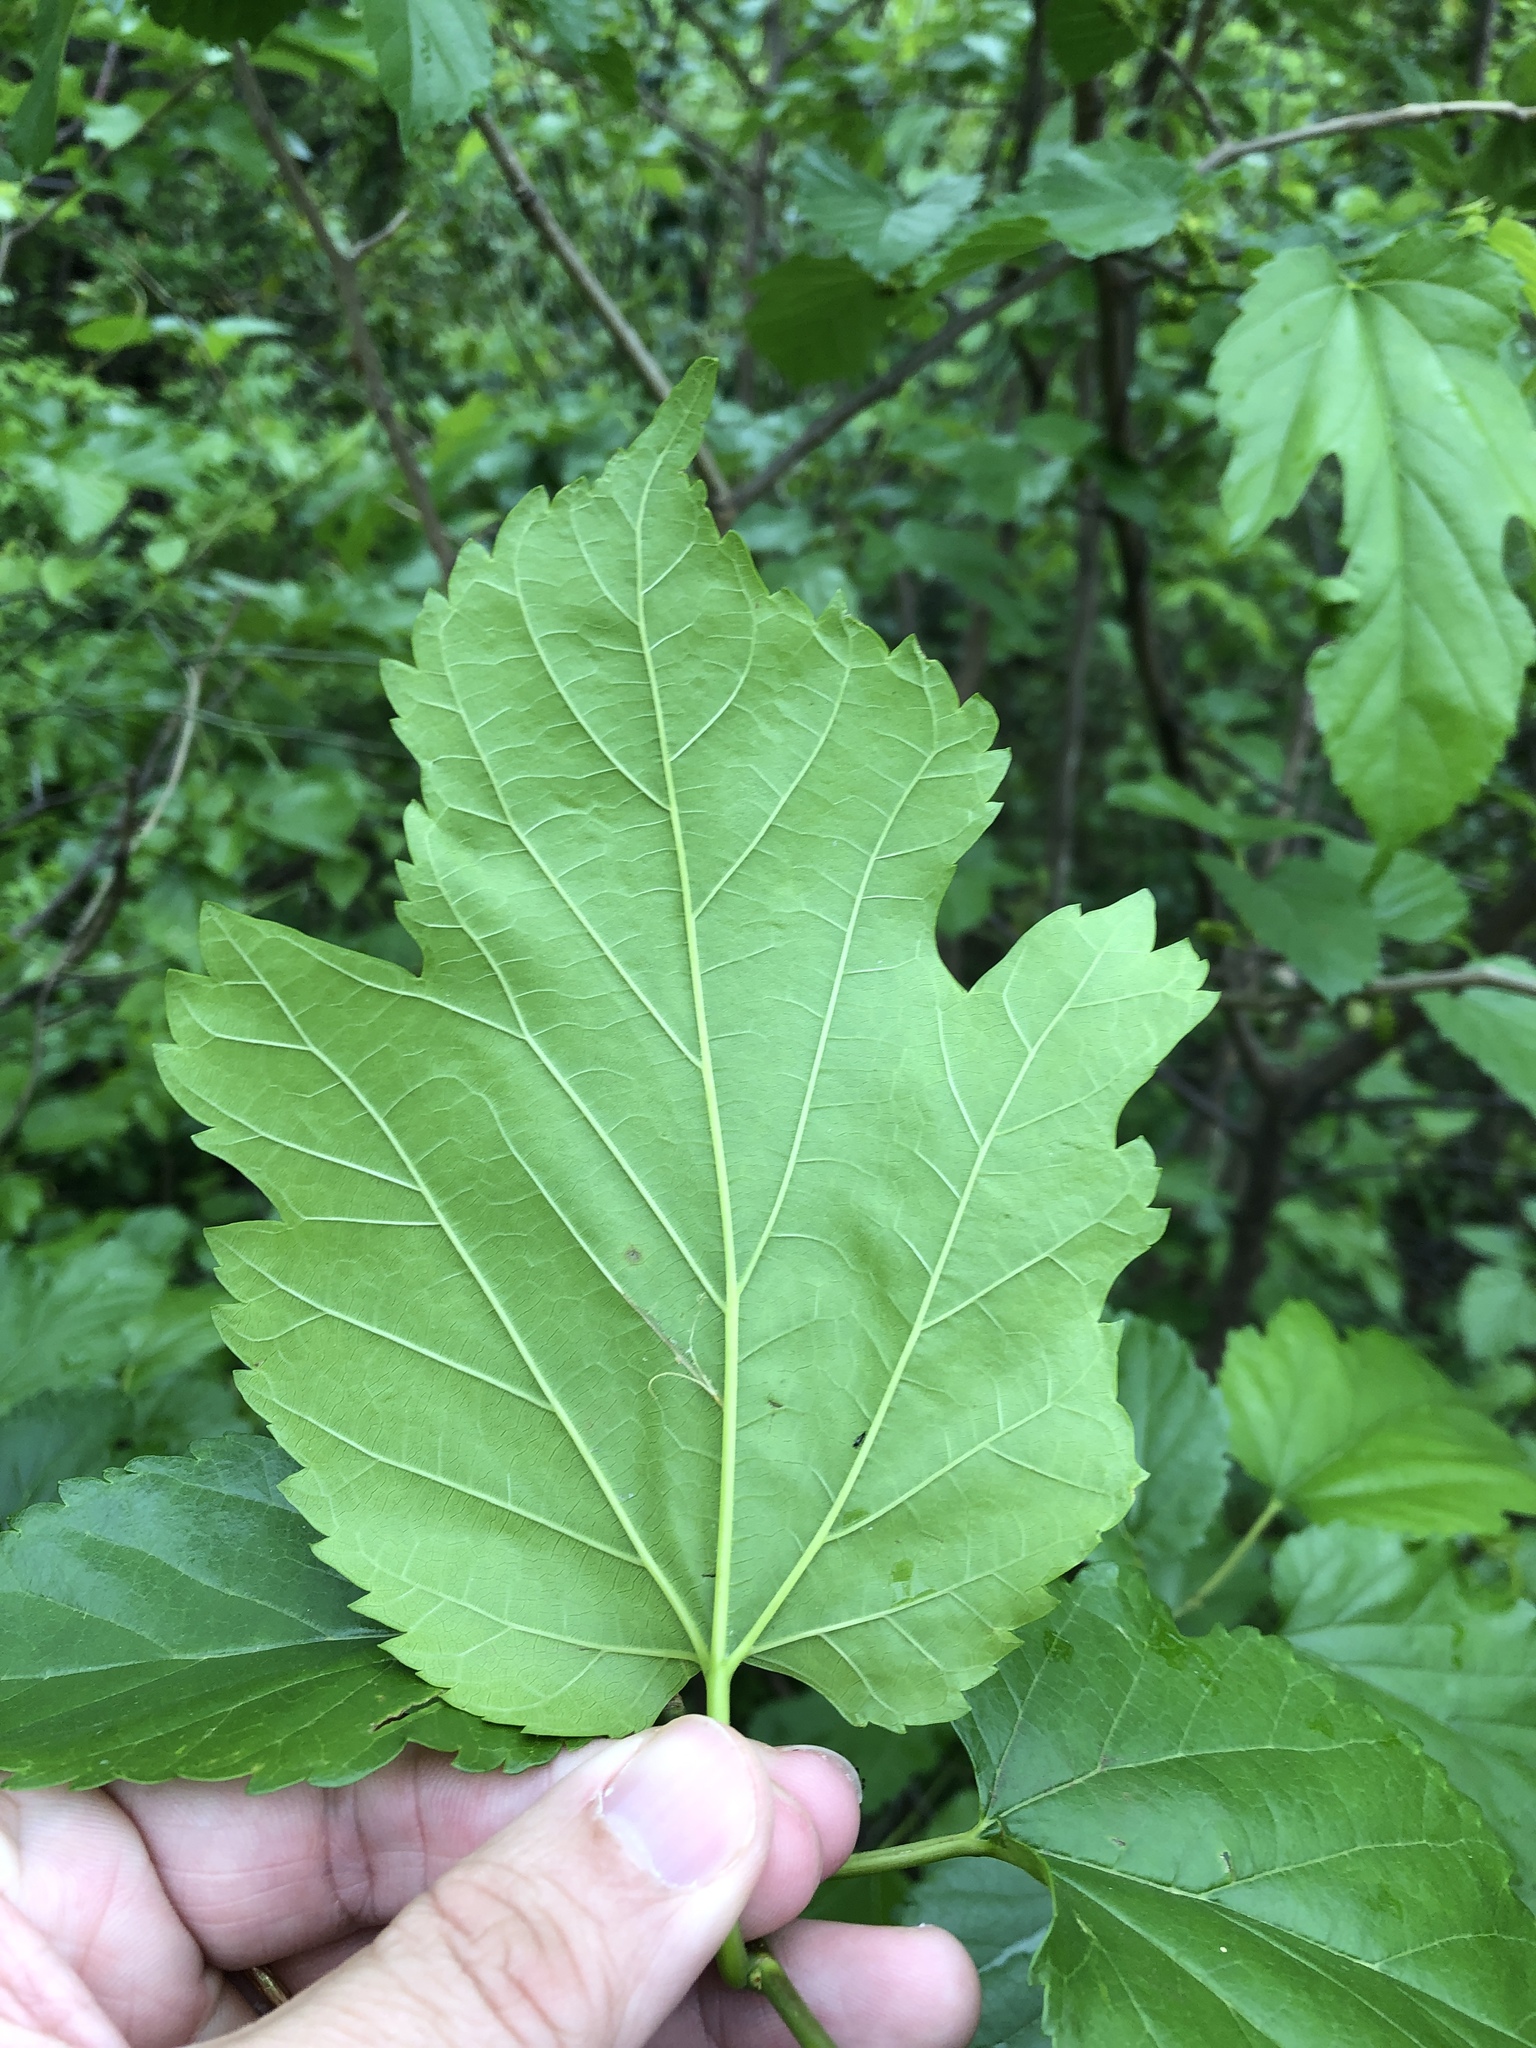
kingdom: Plantae
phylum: Tracheophyta
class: Magnoliopsida
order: Rosales
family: Moraceae
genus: Morus
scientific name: Morus rubra
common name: Red mulberry
